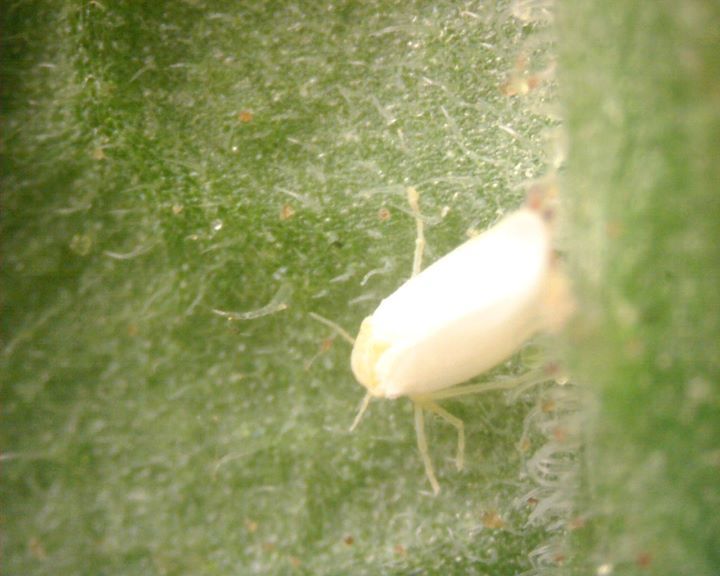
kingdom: Animalia
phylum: Arthropoda
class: Insecta
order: Hemiptera
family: Aleyrodidae
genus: Bemisia
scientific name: Bemisia tabaci
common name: Sweetpotato whitefly
